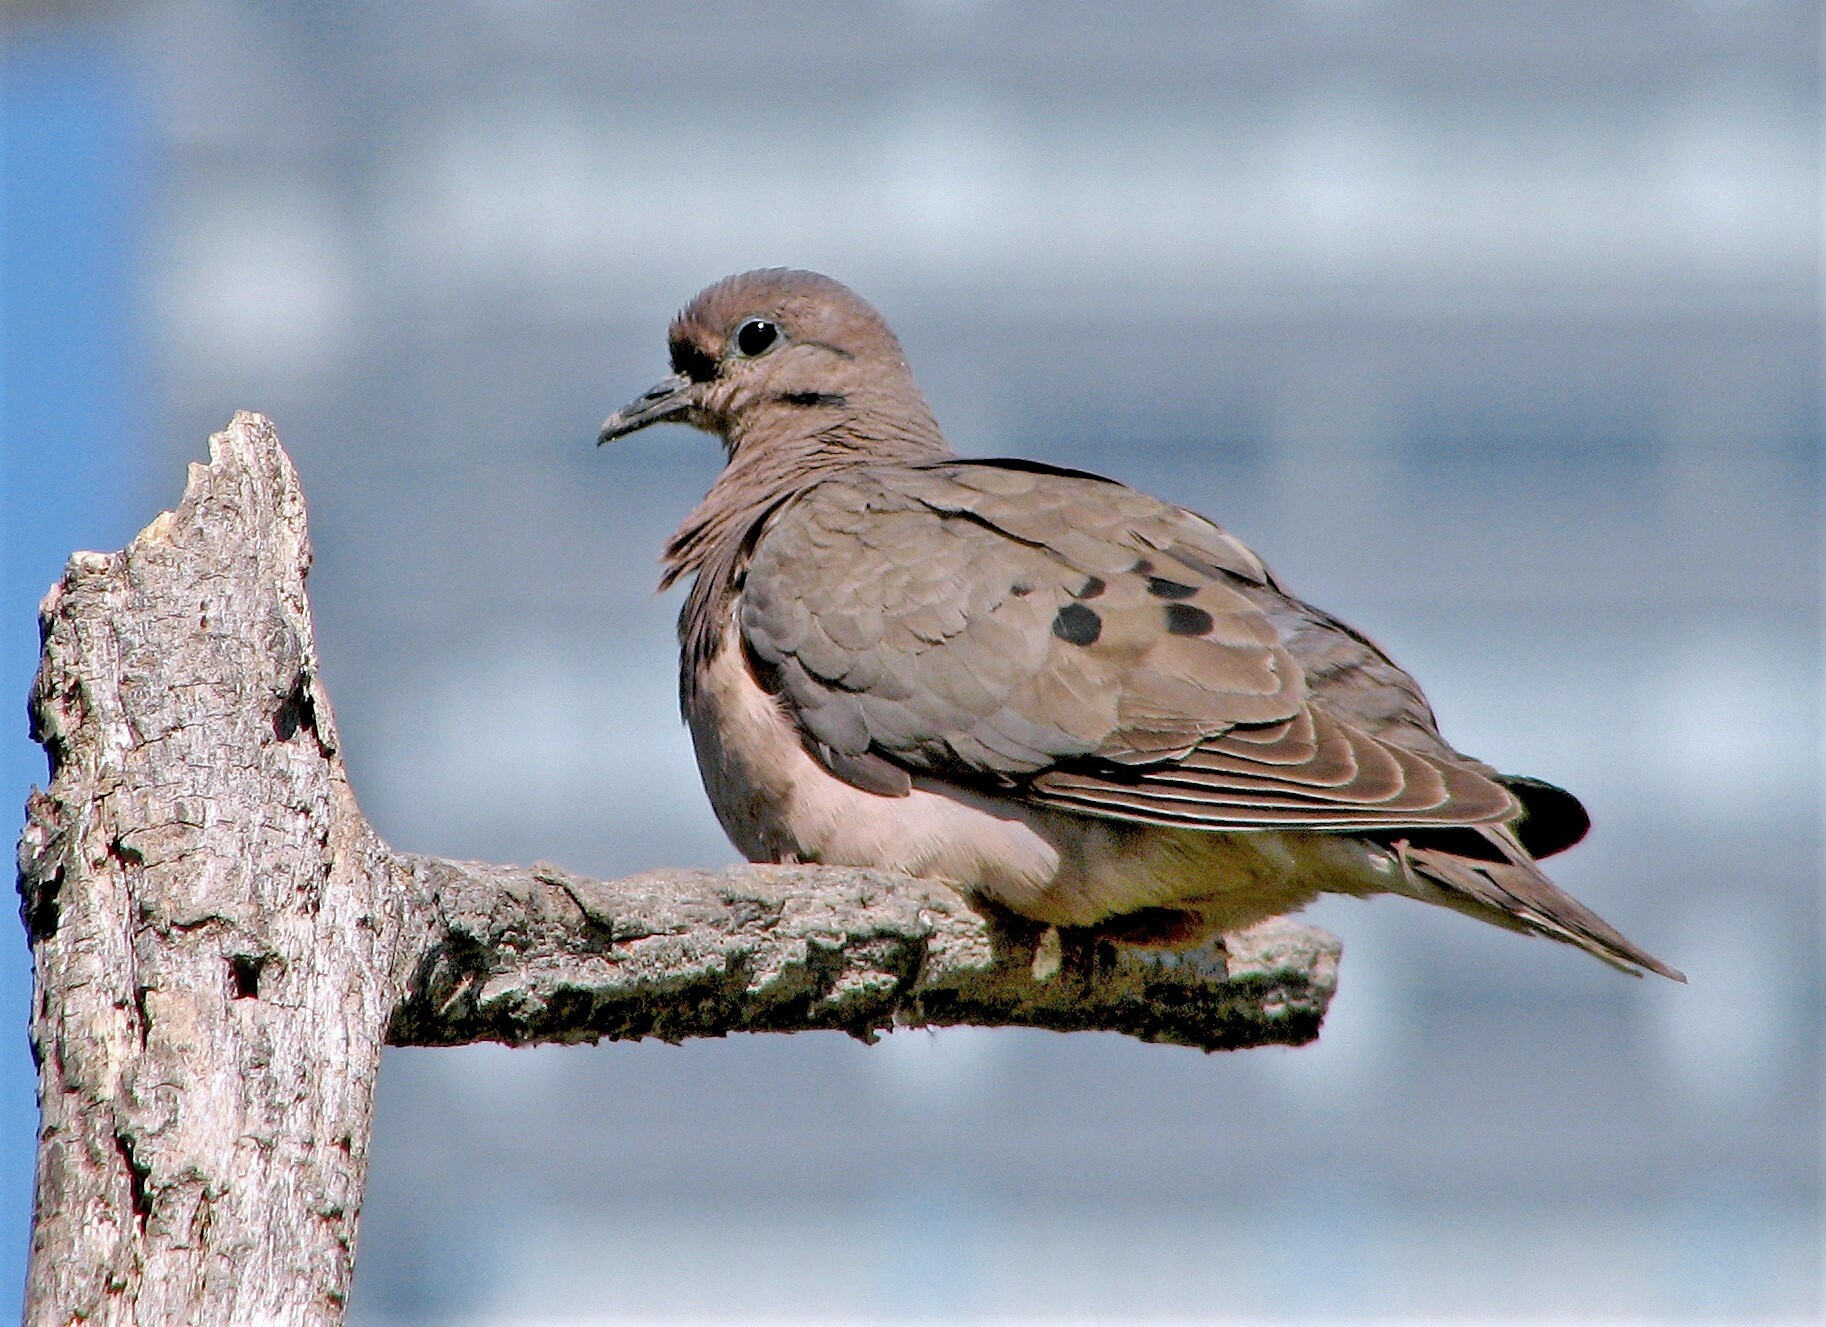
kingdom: Animalia
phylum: Chordata
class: Aves
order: Columbiformes
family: Columbidae
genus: Zenaida
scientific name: Zenaida auriculata
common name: Eared dove
